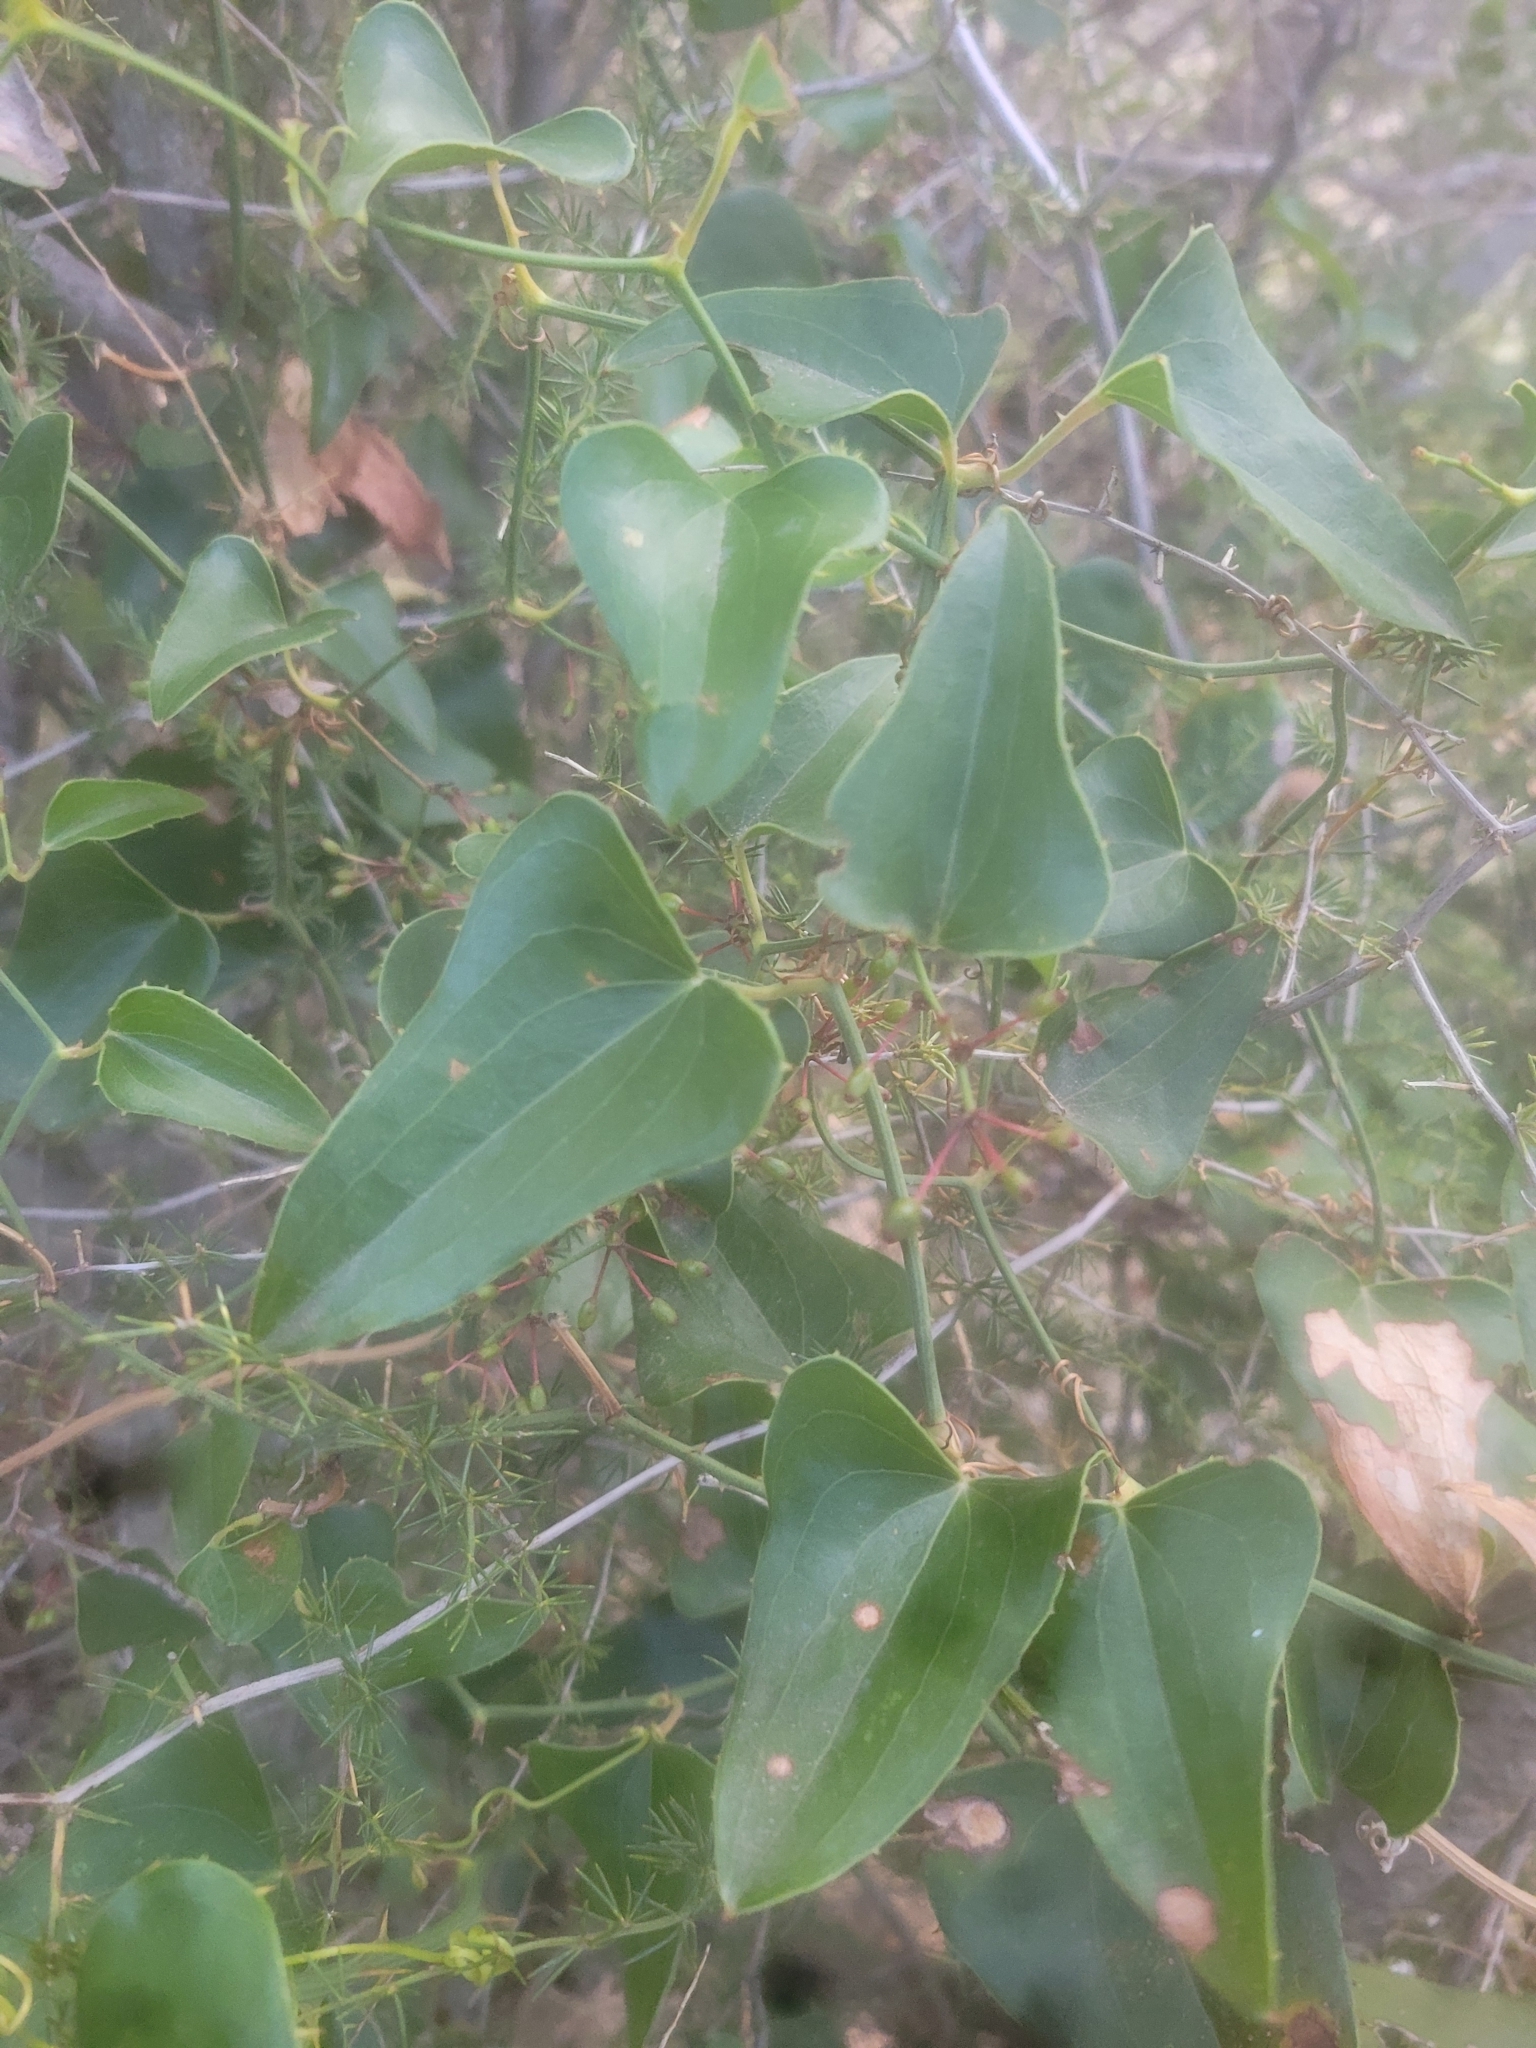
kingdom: Plantae
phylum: Tracheophyta
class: Liliopsida
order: Liliales
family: Smilacaceae
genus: Smilax
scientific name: Smilax aspera
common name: Common smilax
